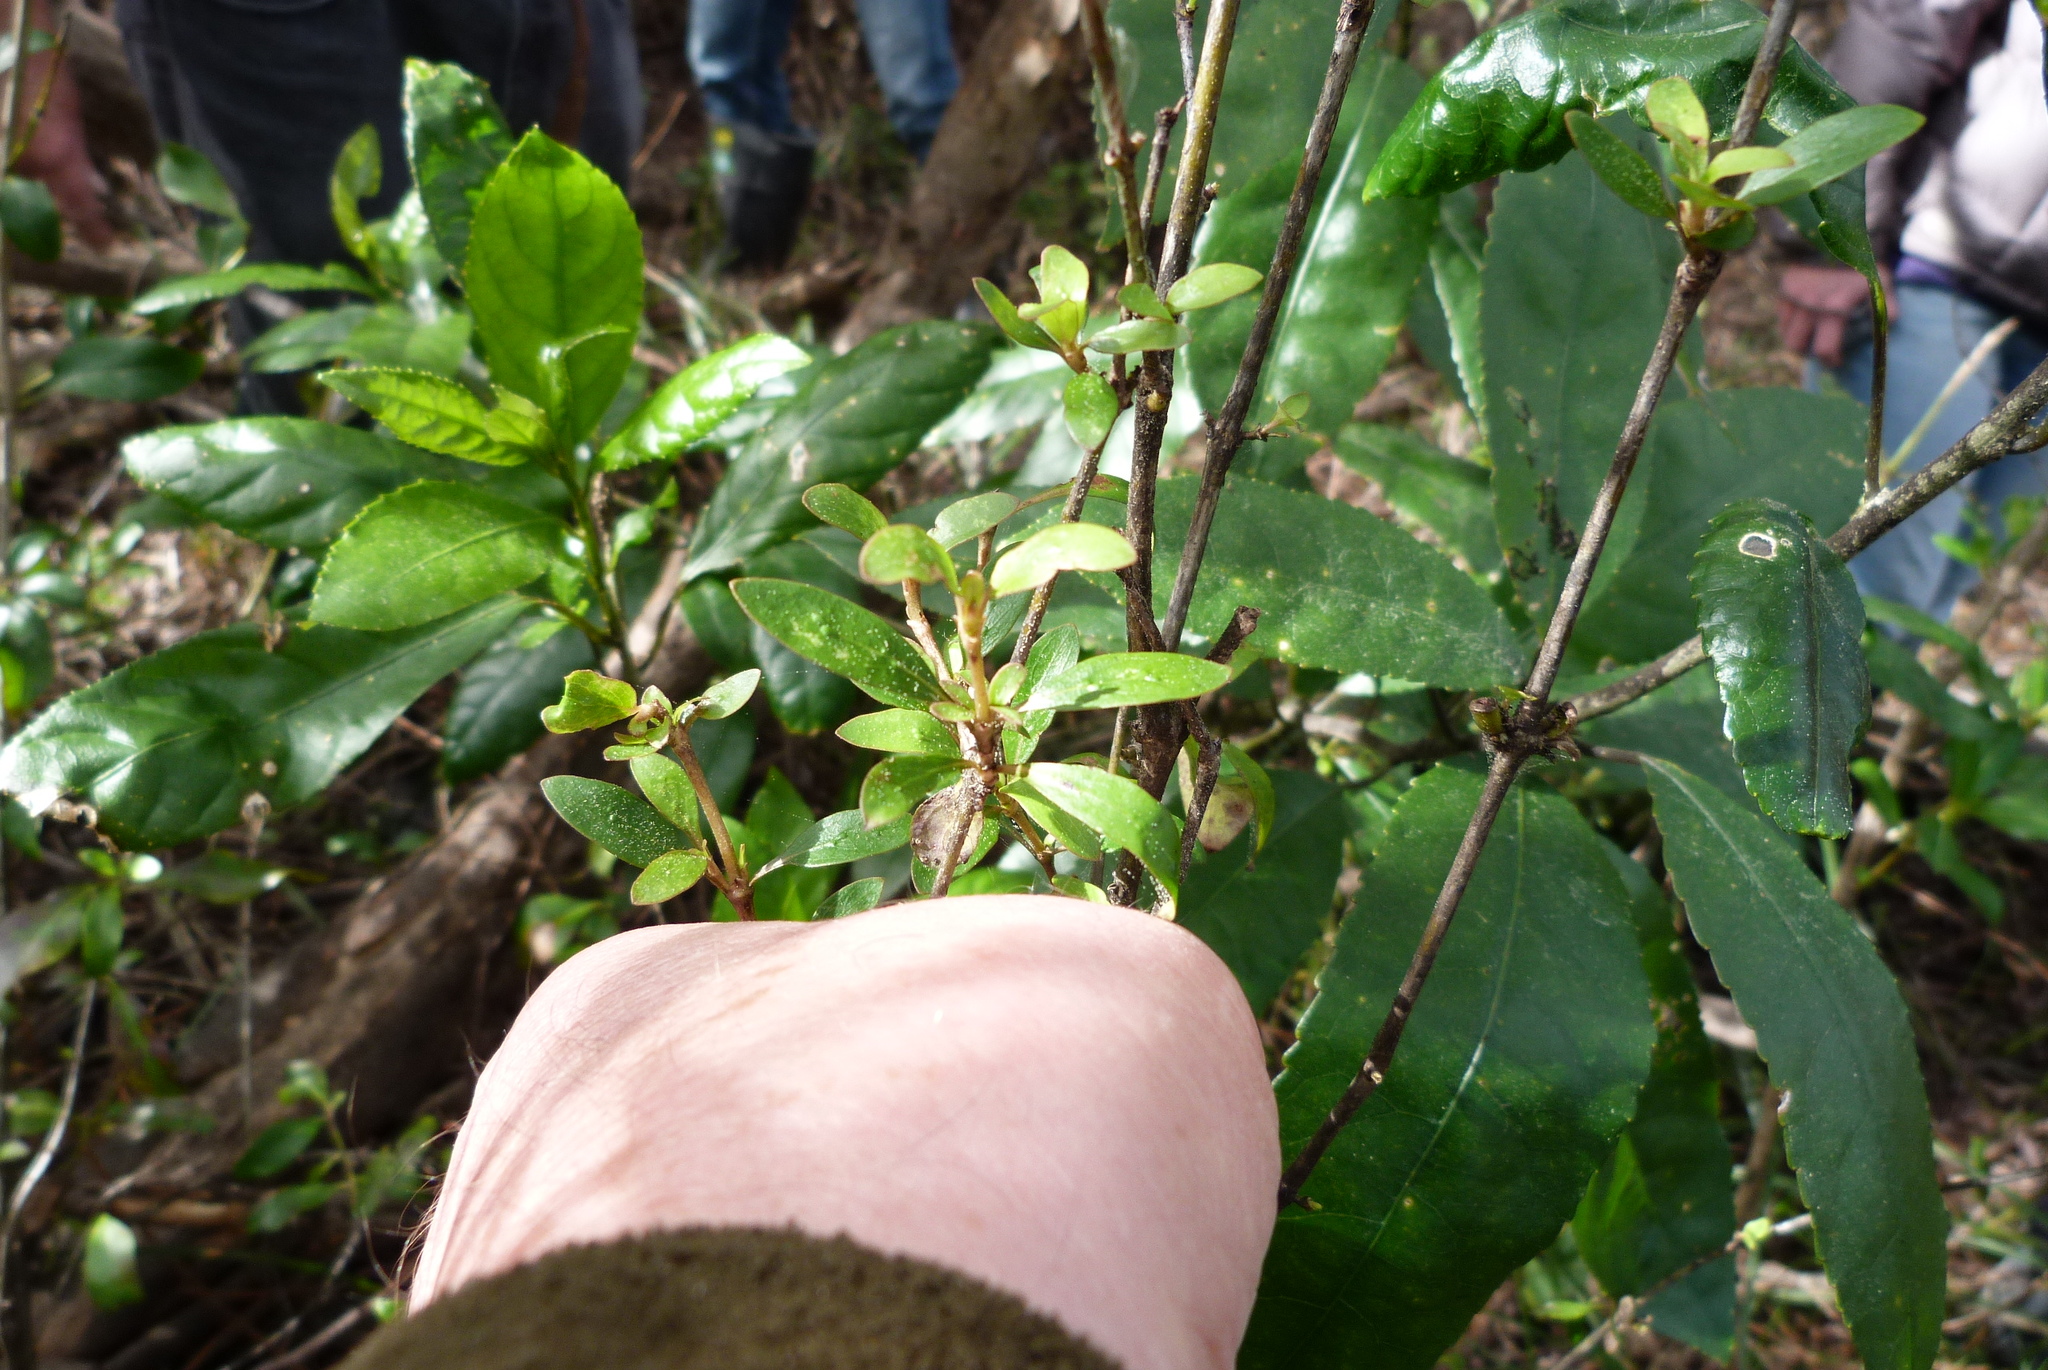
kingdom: Plantae
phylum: Tracheophyta
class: Magnoliopsida
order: Gentianales
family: Rubiaceae
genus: Coprosma
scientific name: Coprosma cunninghamii
